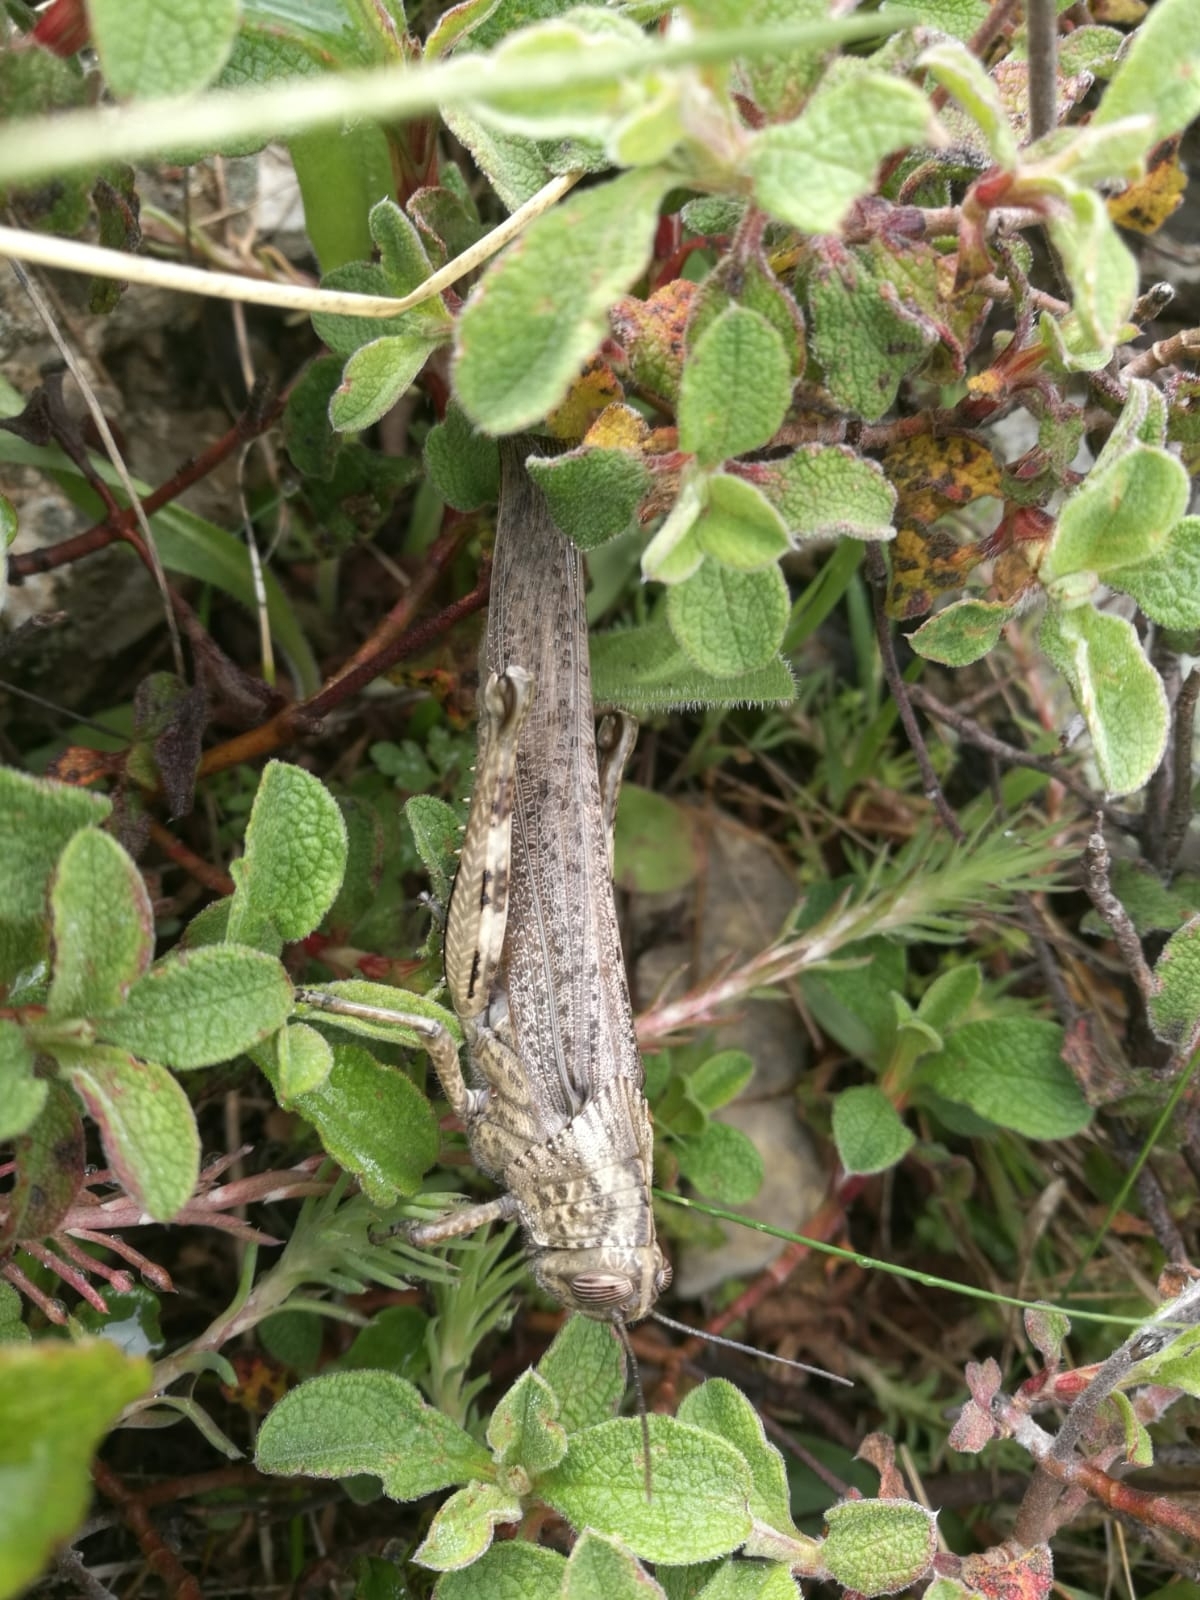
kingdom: Animalia
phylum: Arthropoda
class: Insecta
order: Orthoptera
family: Acrididae
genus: Anacridium
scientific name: Anacridium aegyptium
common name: Egyptian grasshopper
